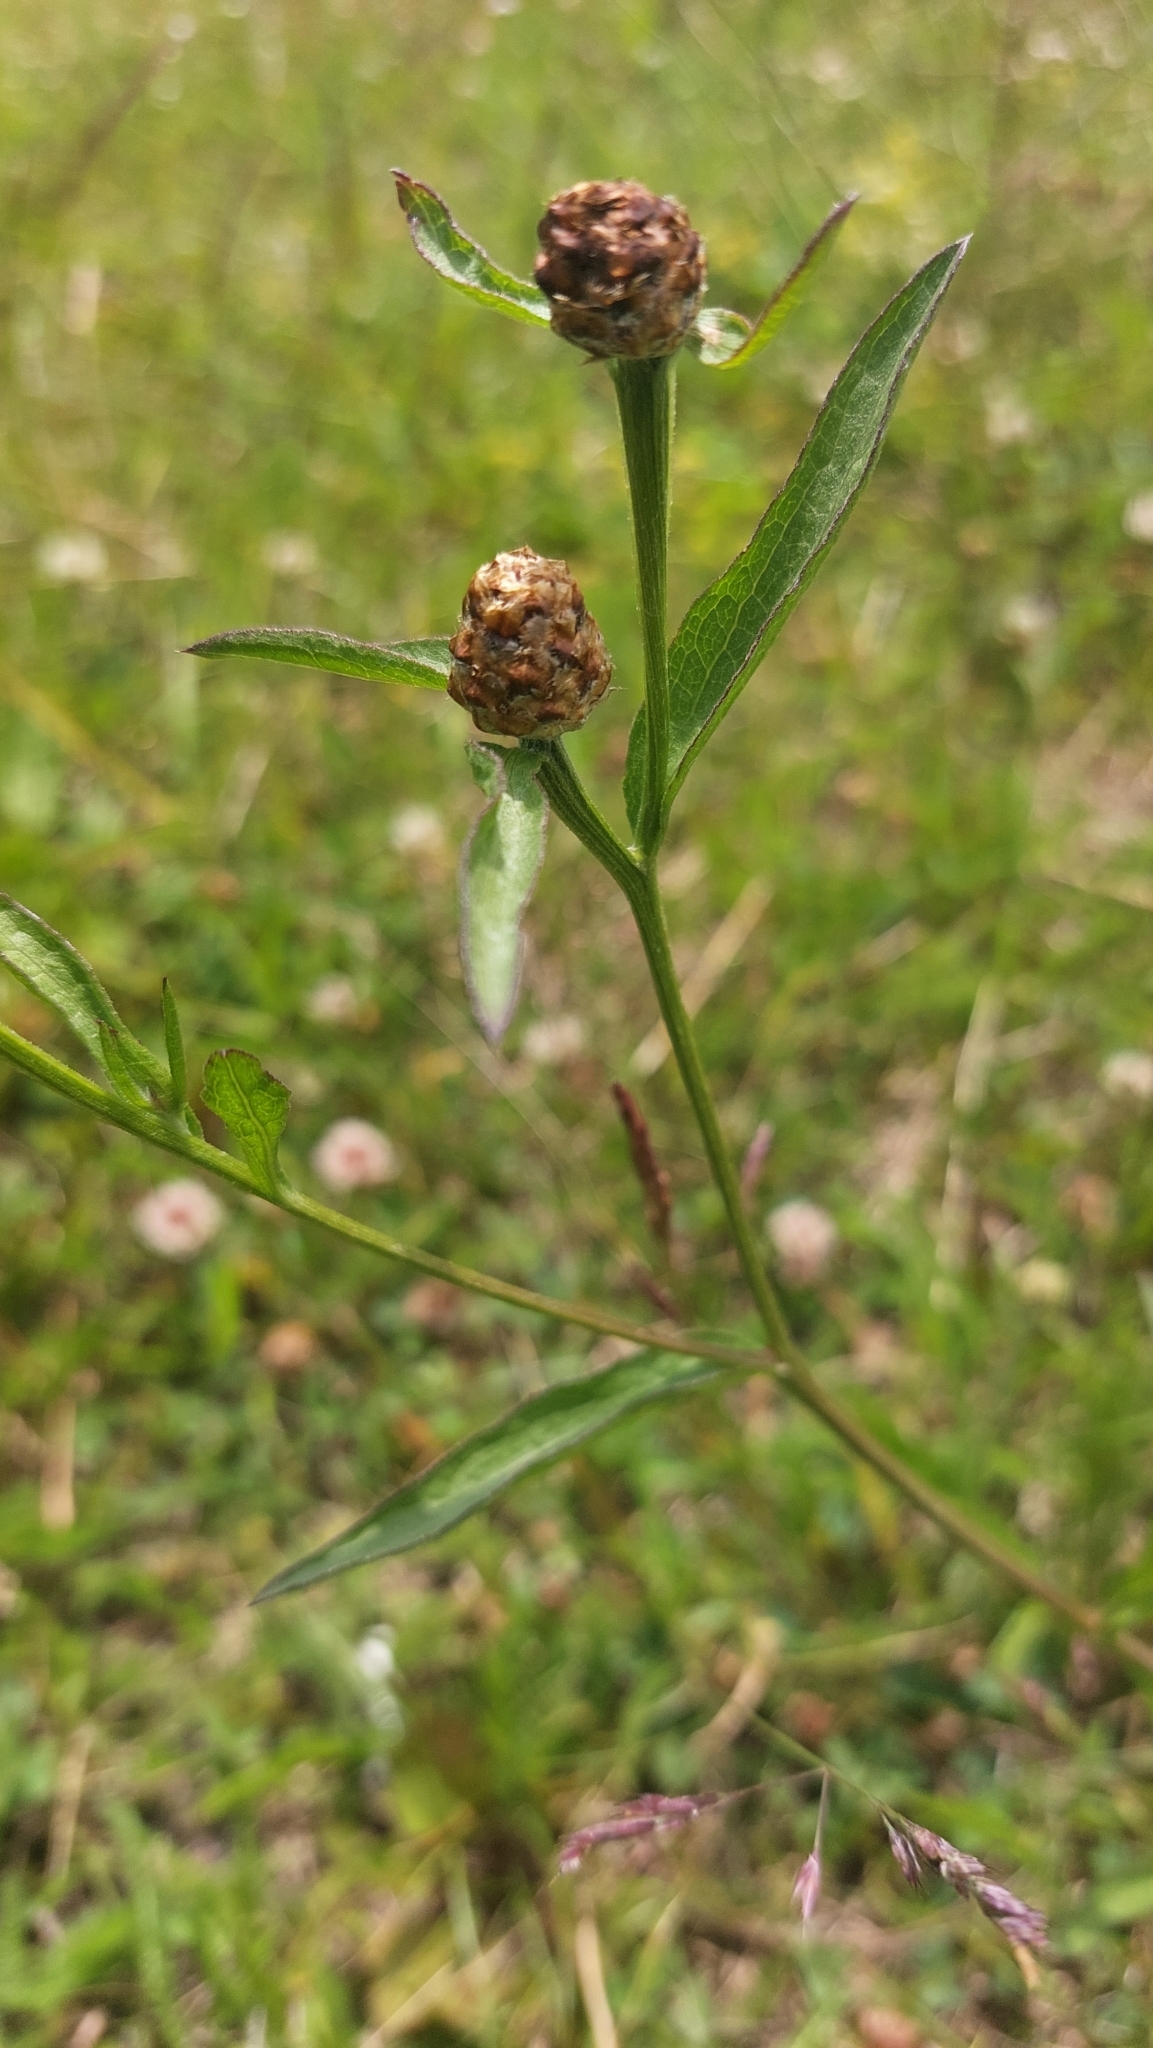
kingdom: Plantae
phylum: Tracheophyta
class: Magnoliopsida
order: Asterales
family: Asteraceae
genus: Centaurea
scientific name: Centaurea jacea
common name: Brown knapweed
